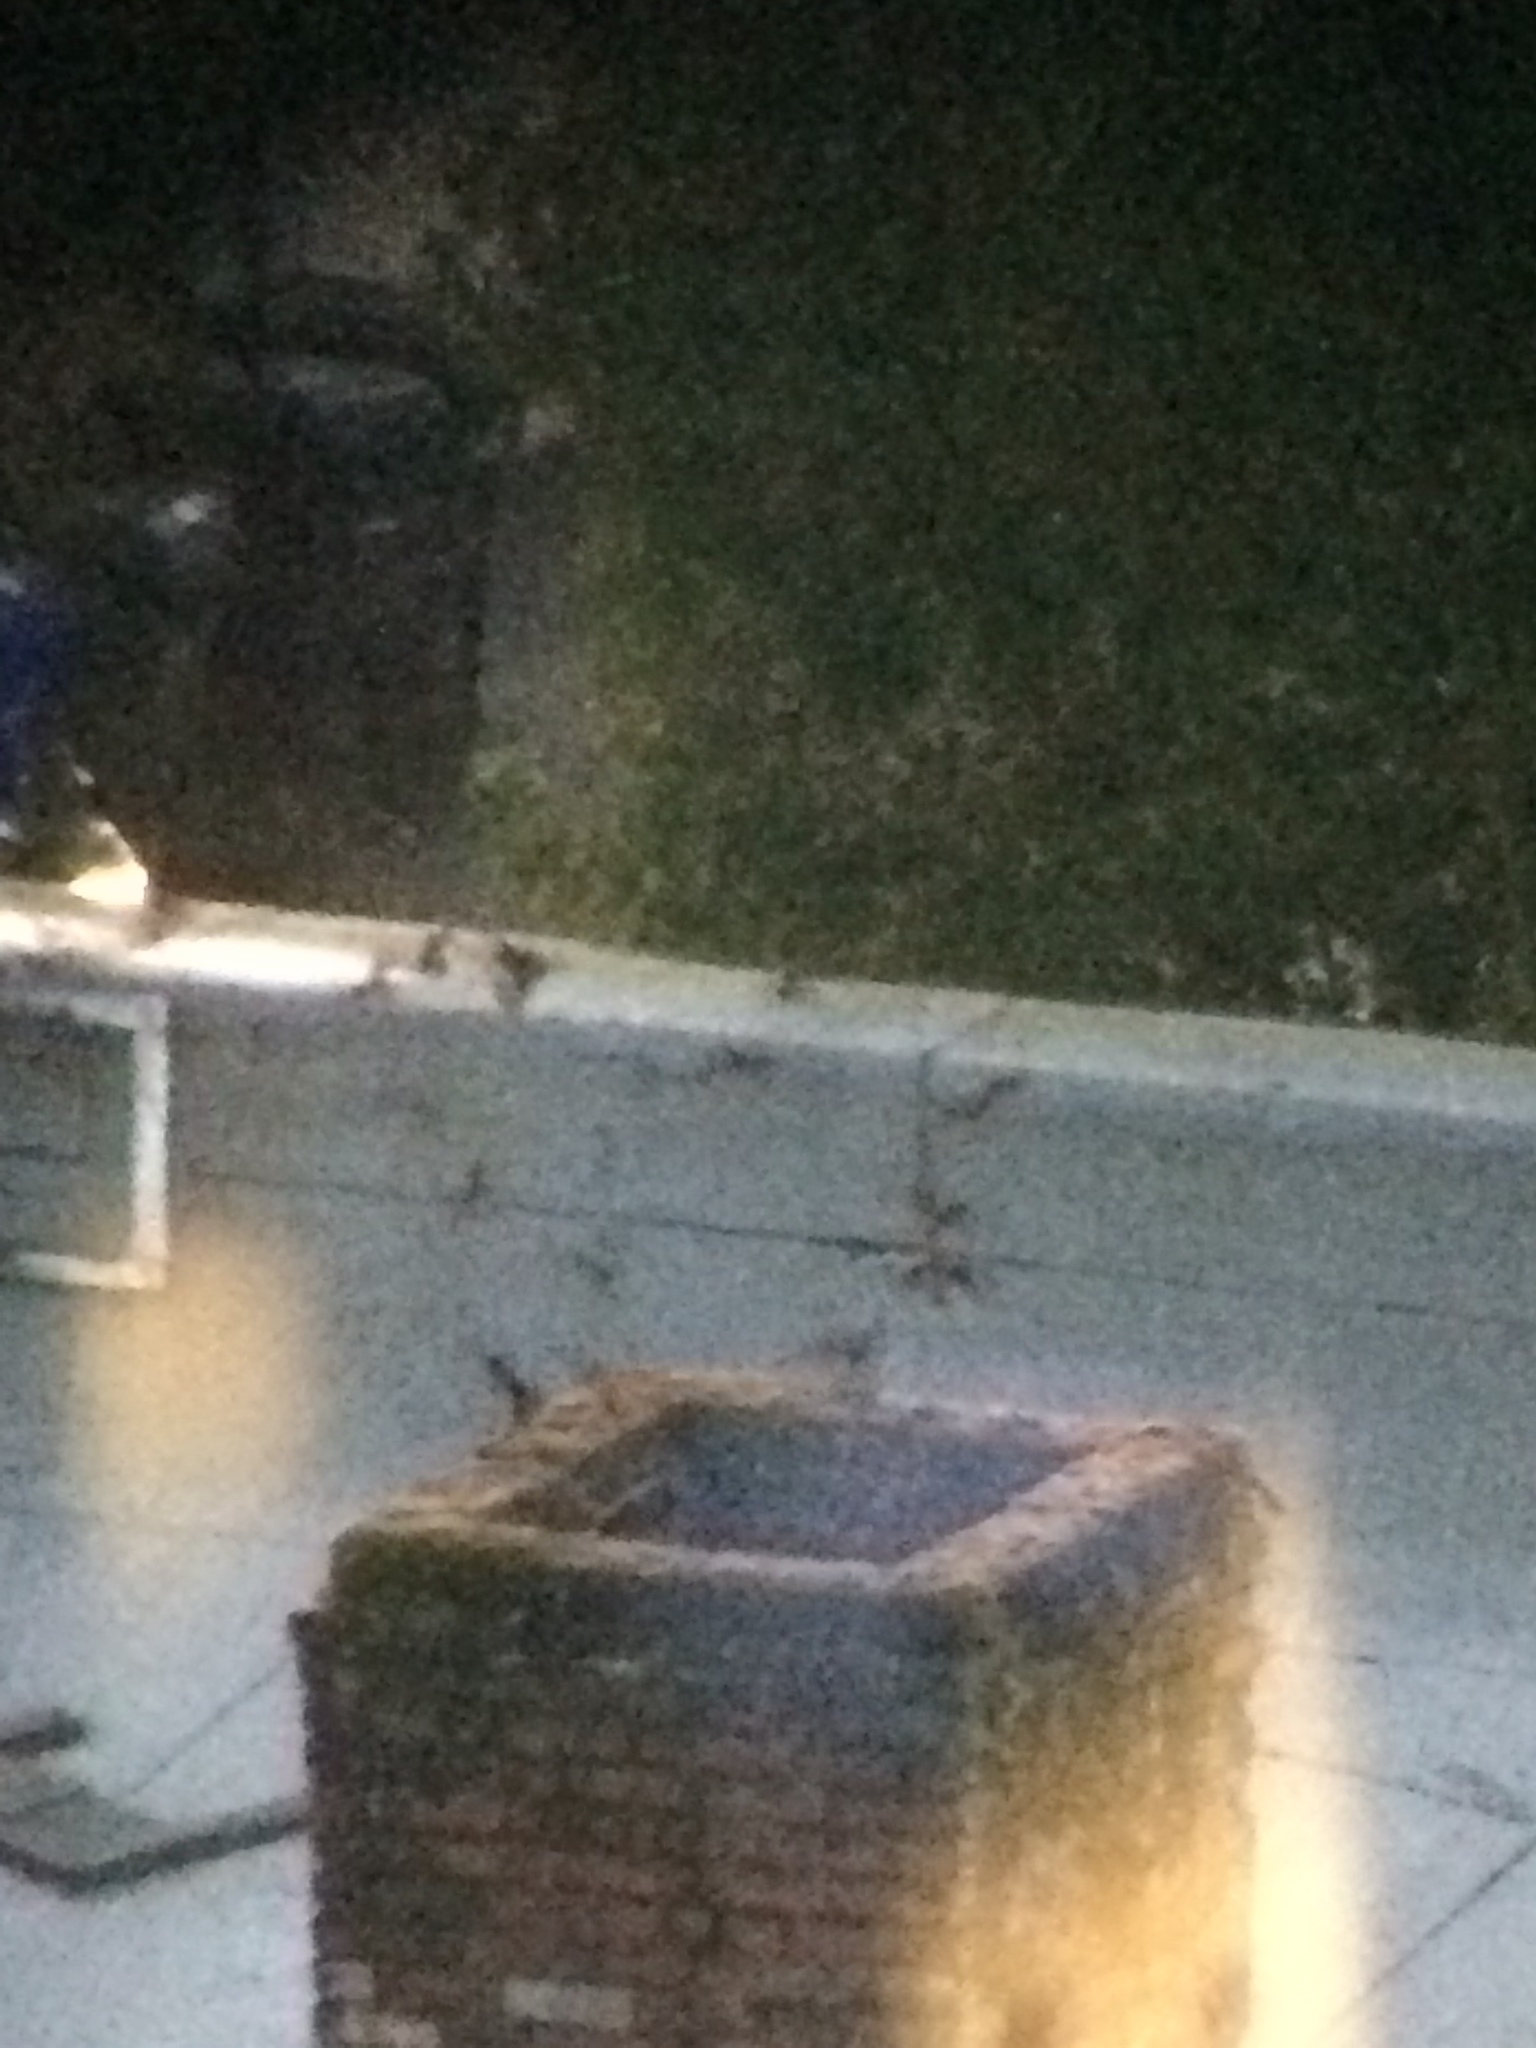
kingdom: Animalia
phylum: Chordata
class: Aves
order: Apodiformes
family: Apodidae
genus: Chaetura
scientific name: Chaetura vauxi
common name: Vaux's swift
